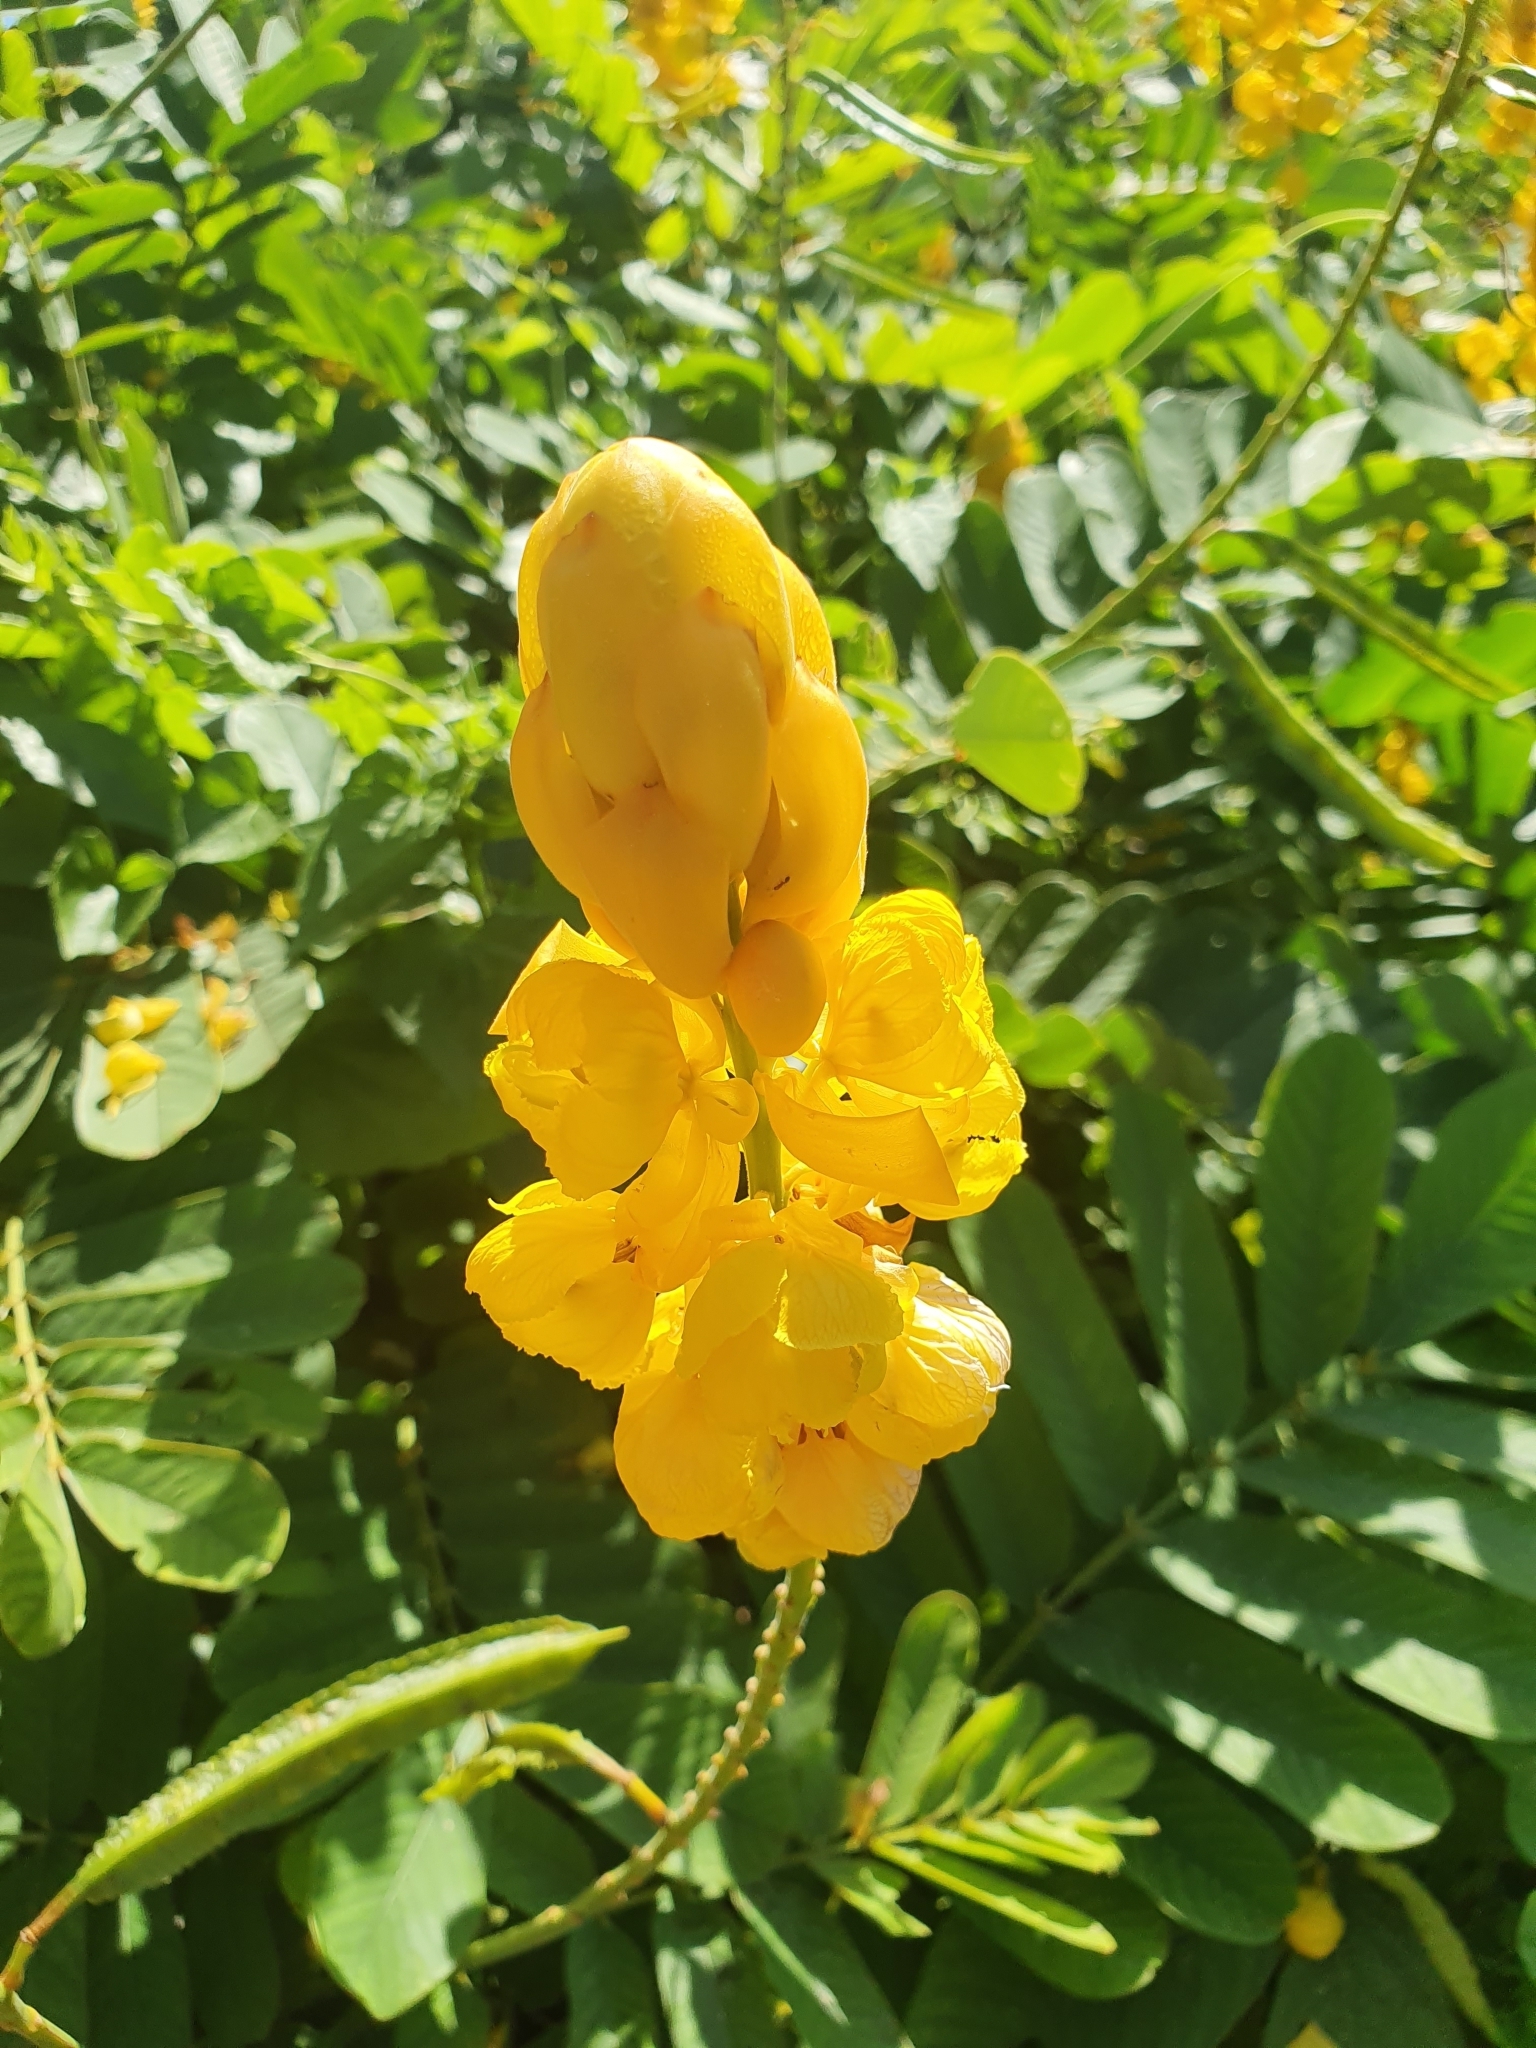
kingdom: Plantae
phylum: Tracheophyta
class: Magnoliopsida
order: Fabales
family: Fabaceae
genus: Senna
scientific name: Senna alata
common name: Emperor's candlesticks
